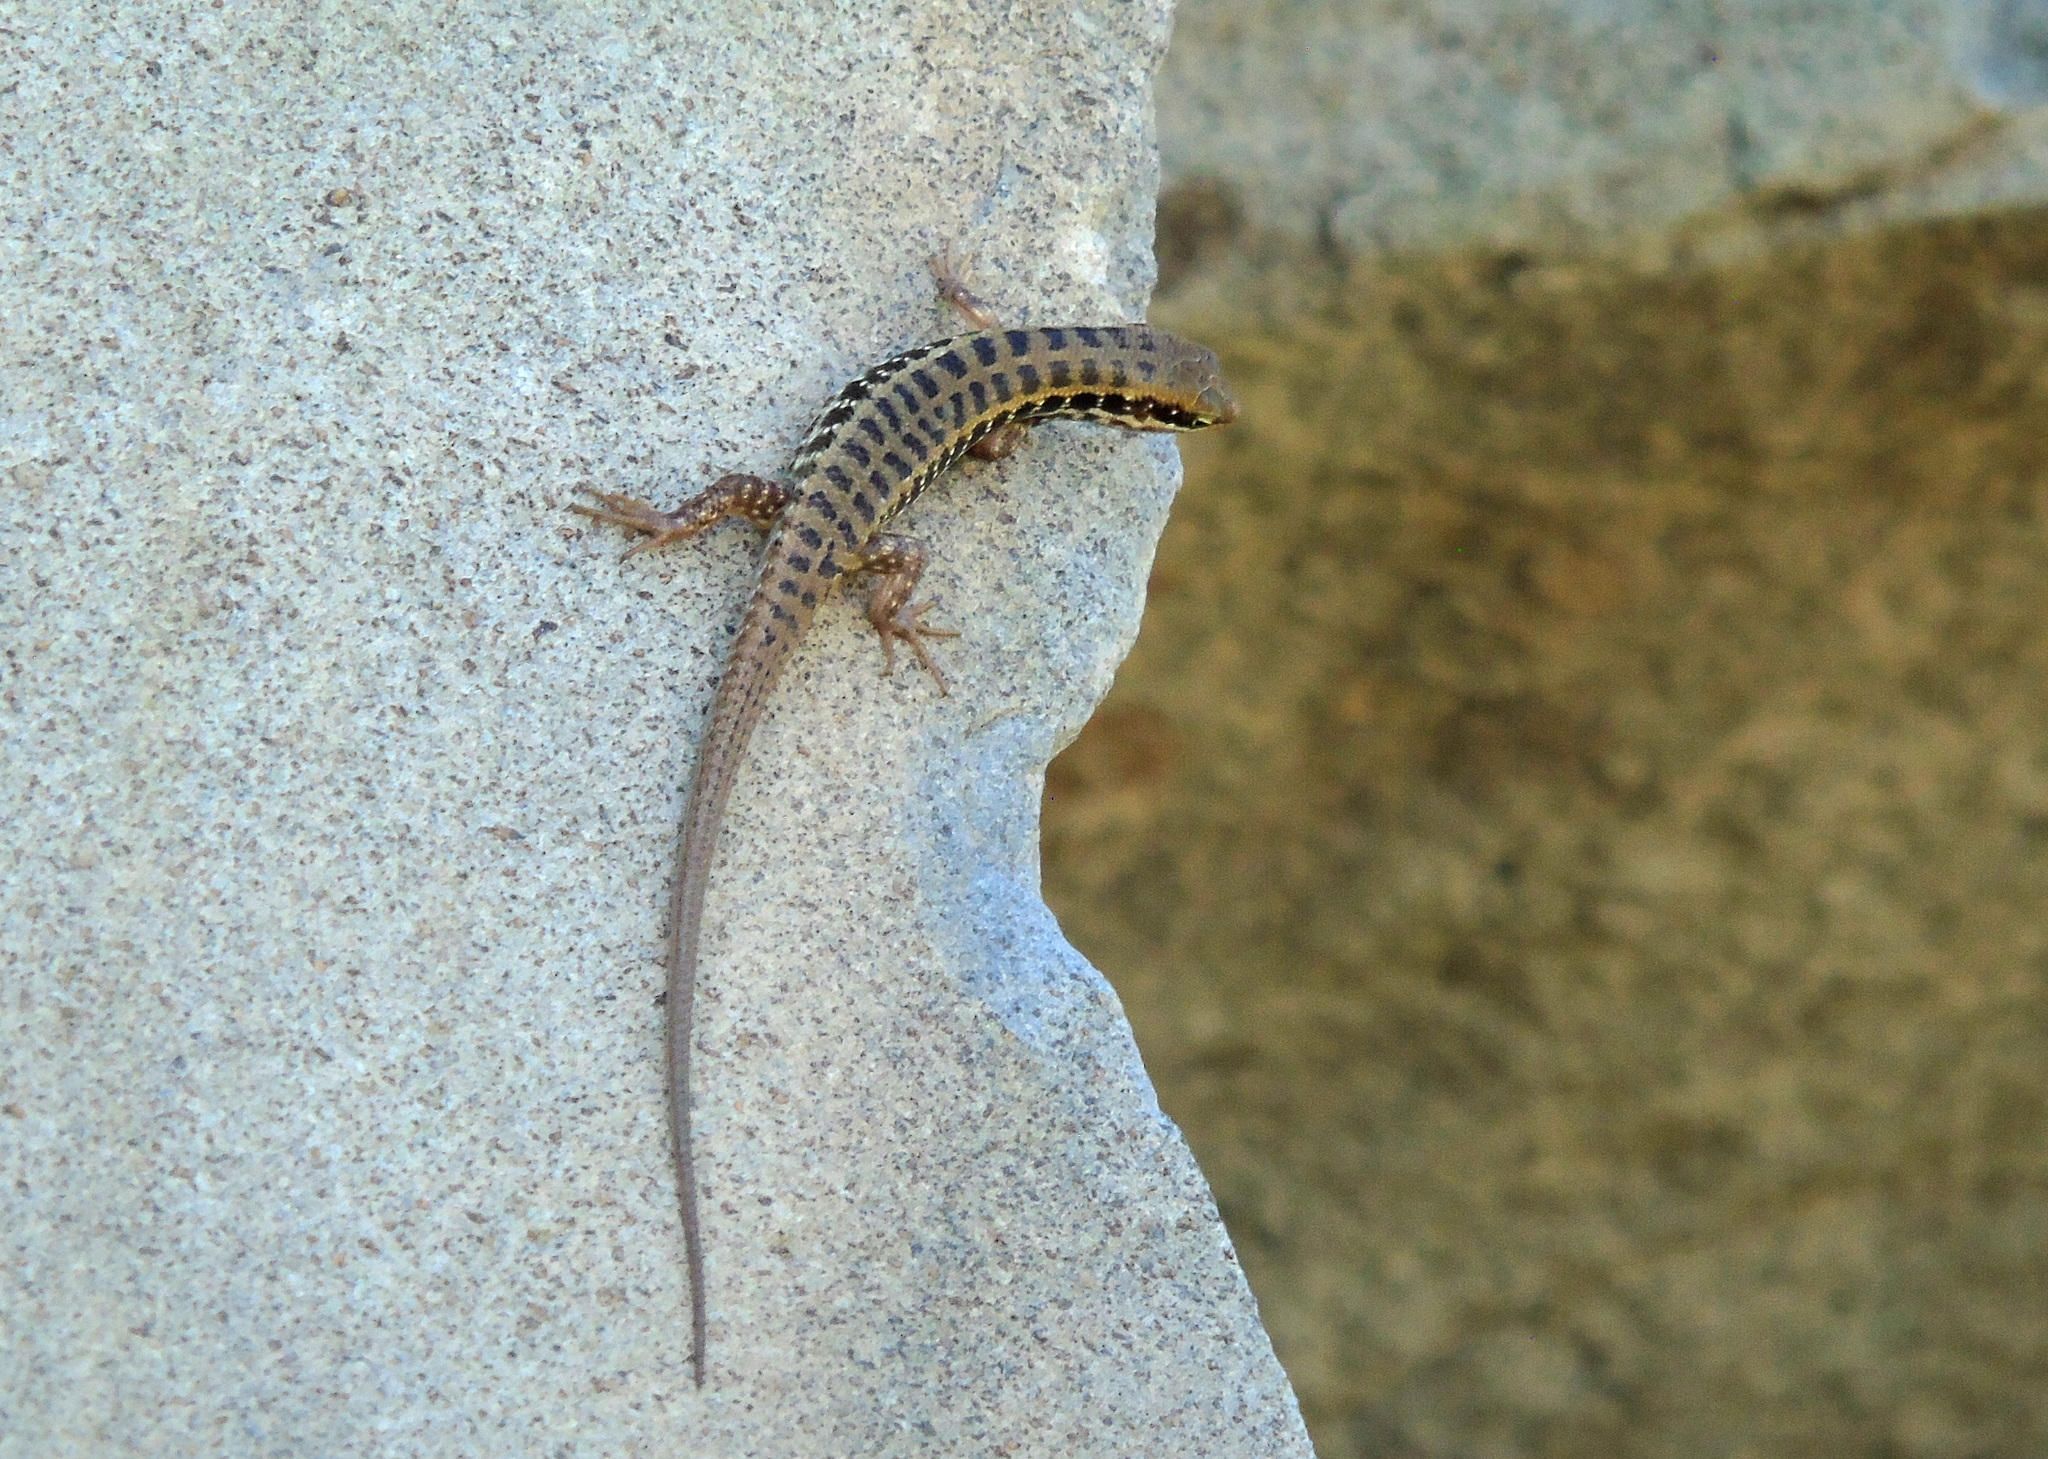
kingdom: Animalia
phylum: Chordata
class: Squamata
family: Scincidae
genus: Heremites
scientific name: Heremites auratus
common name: Golden grass mabuya
